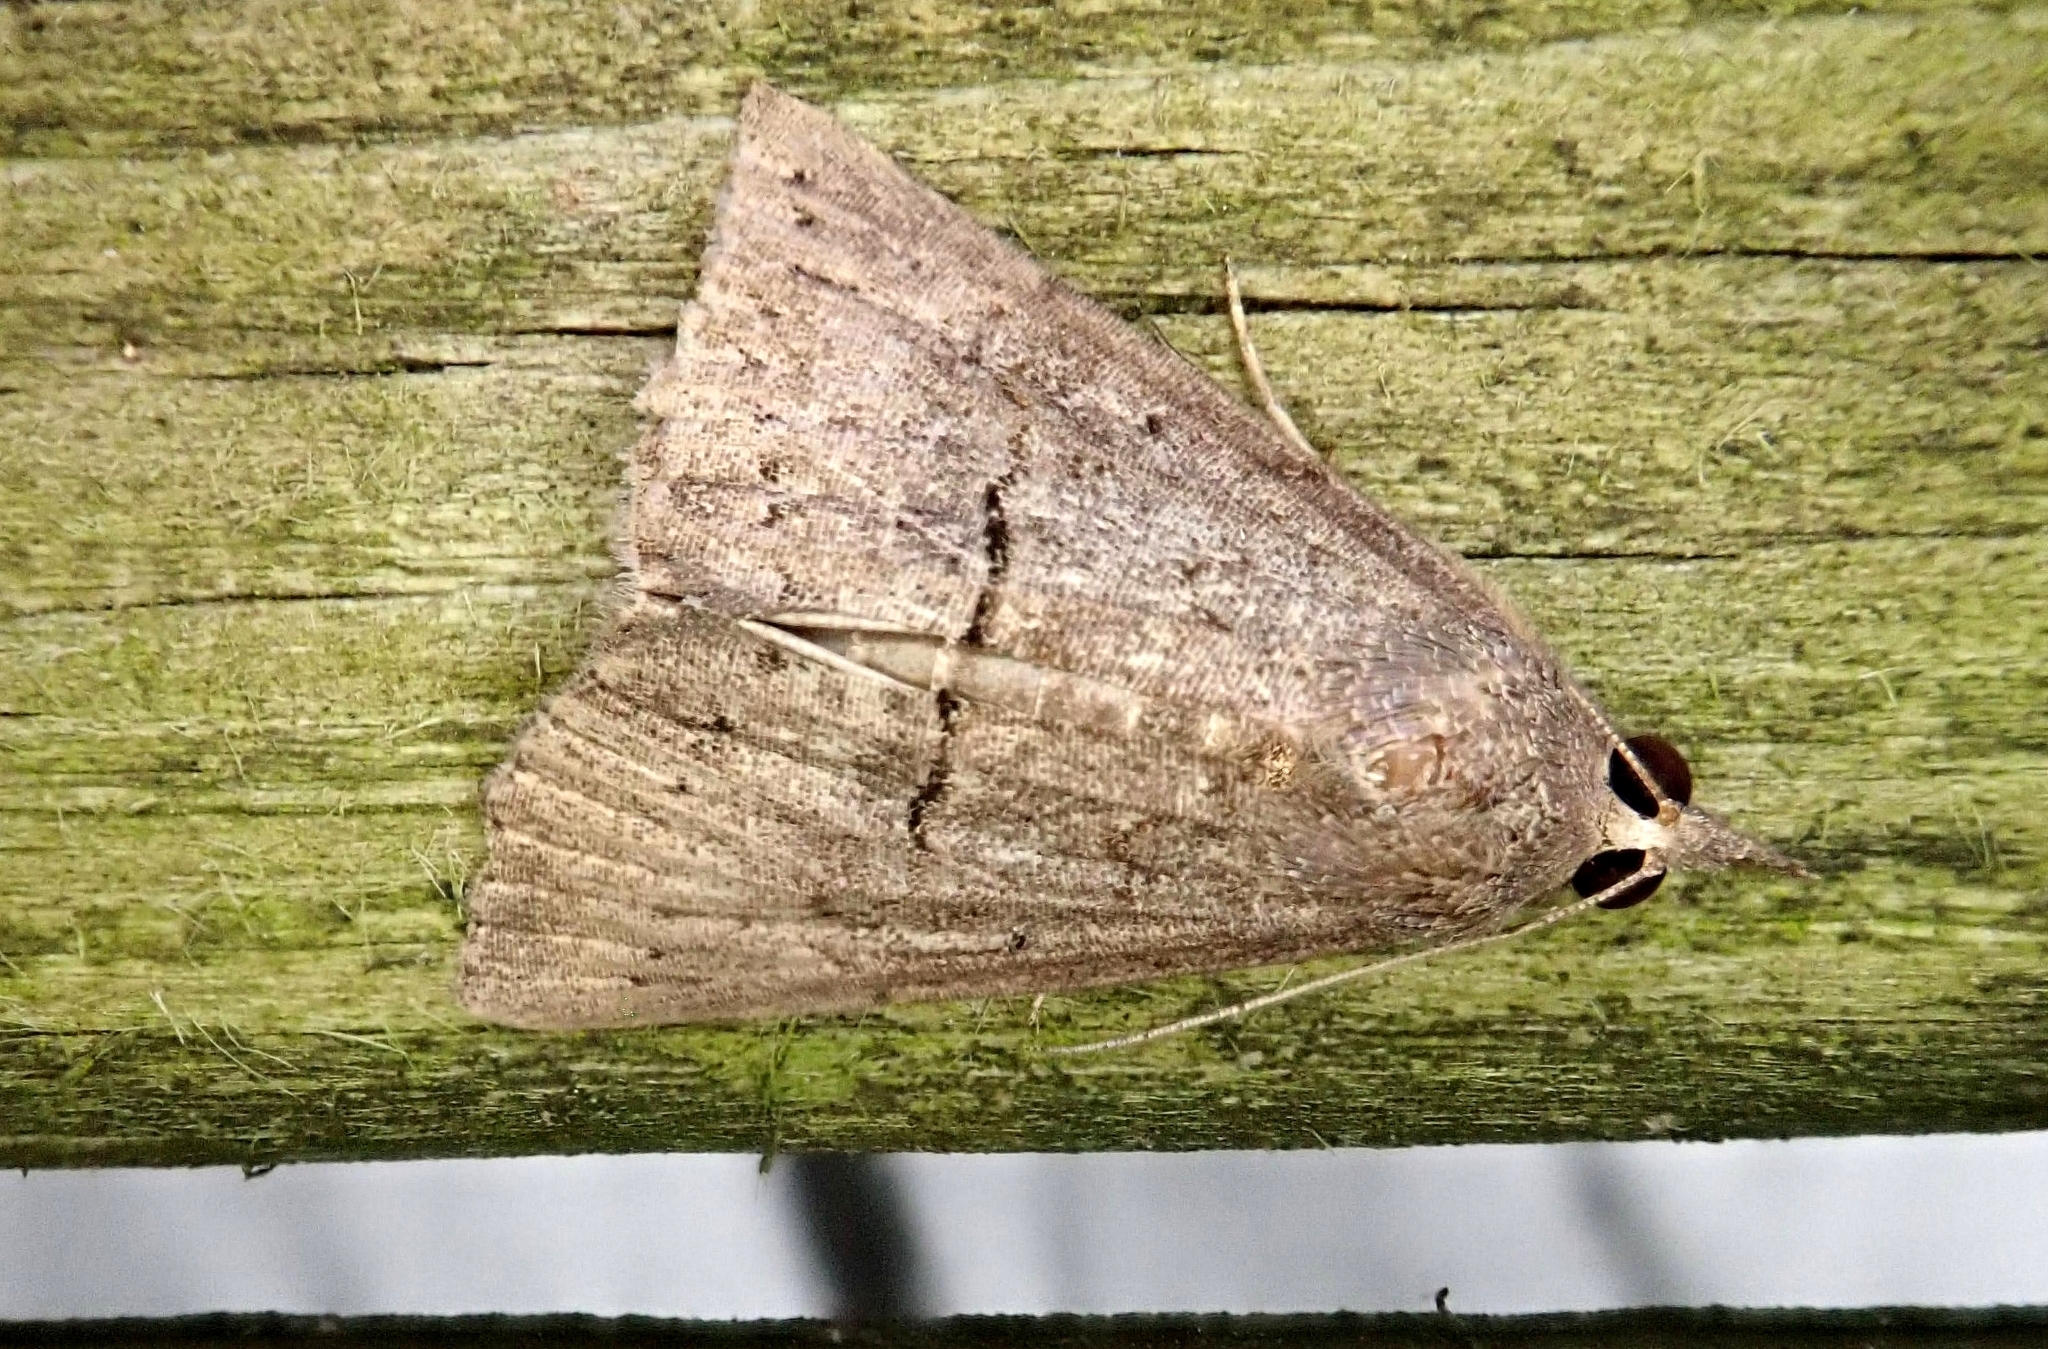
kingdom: Animalia
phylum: Arthropoda
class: Insecta
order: Lepidoptera
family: Erebidae
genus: Hypena
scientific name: Hypena scabra
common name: Green cloverworm
